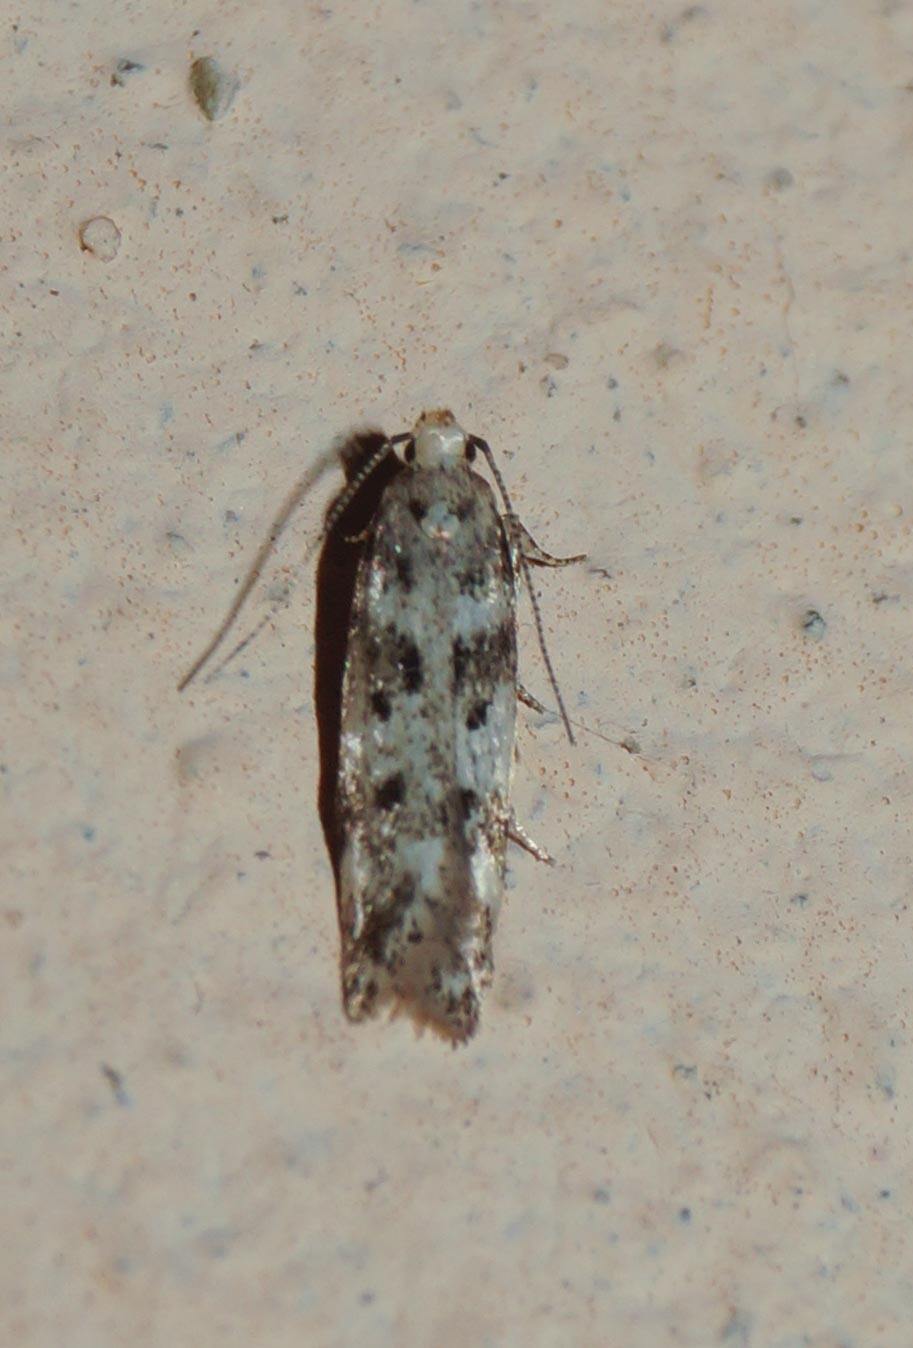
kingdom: Animalia
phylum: Arthropoda
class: Insecta
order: Lepidoptera
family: Gelechiidae
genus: Chionodes
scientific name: Chionodes electella
